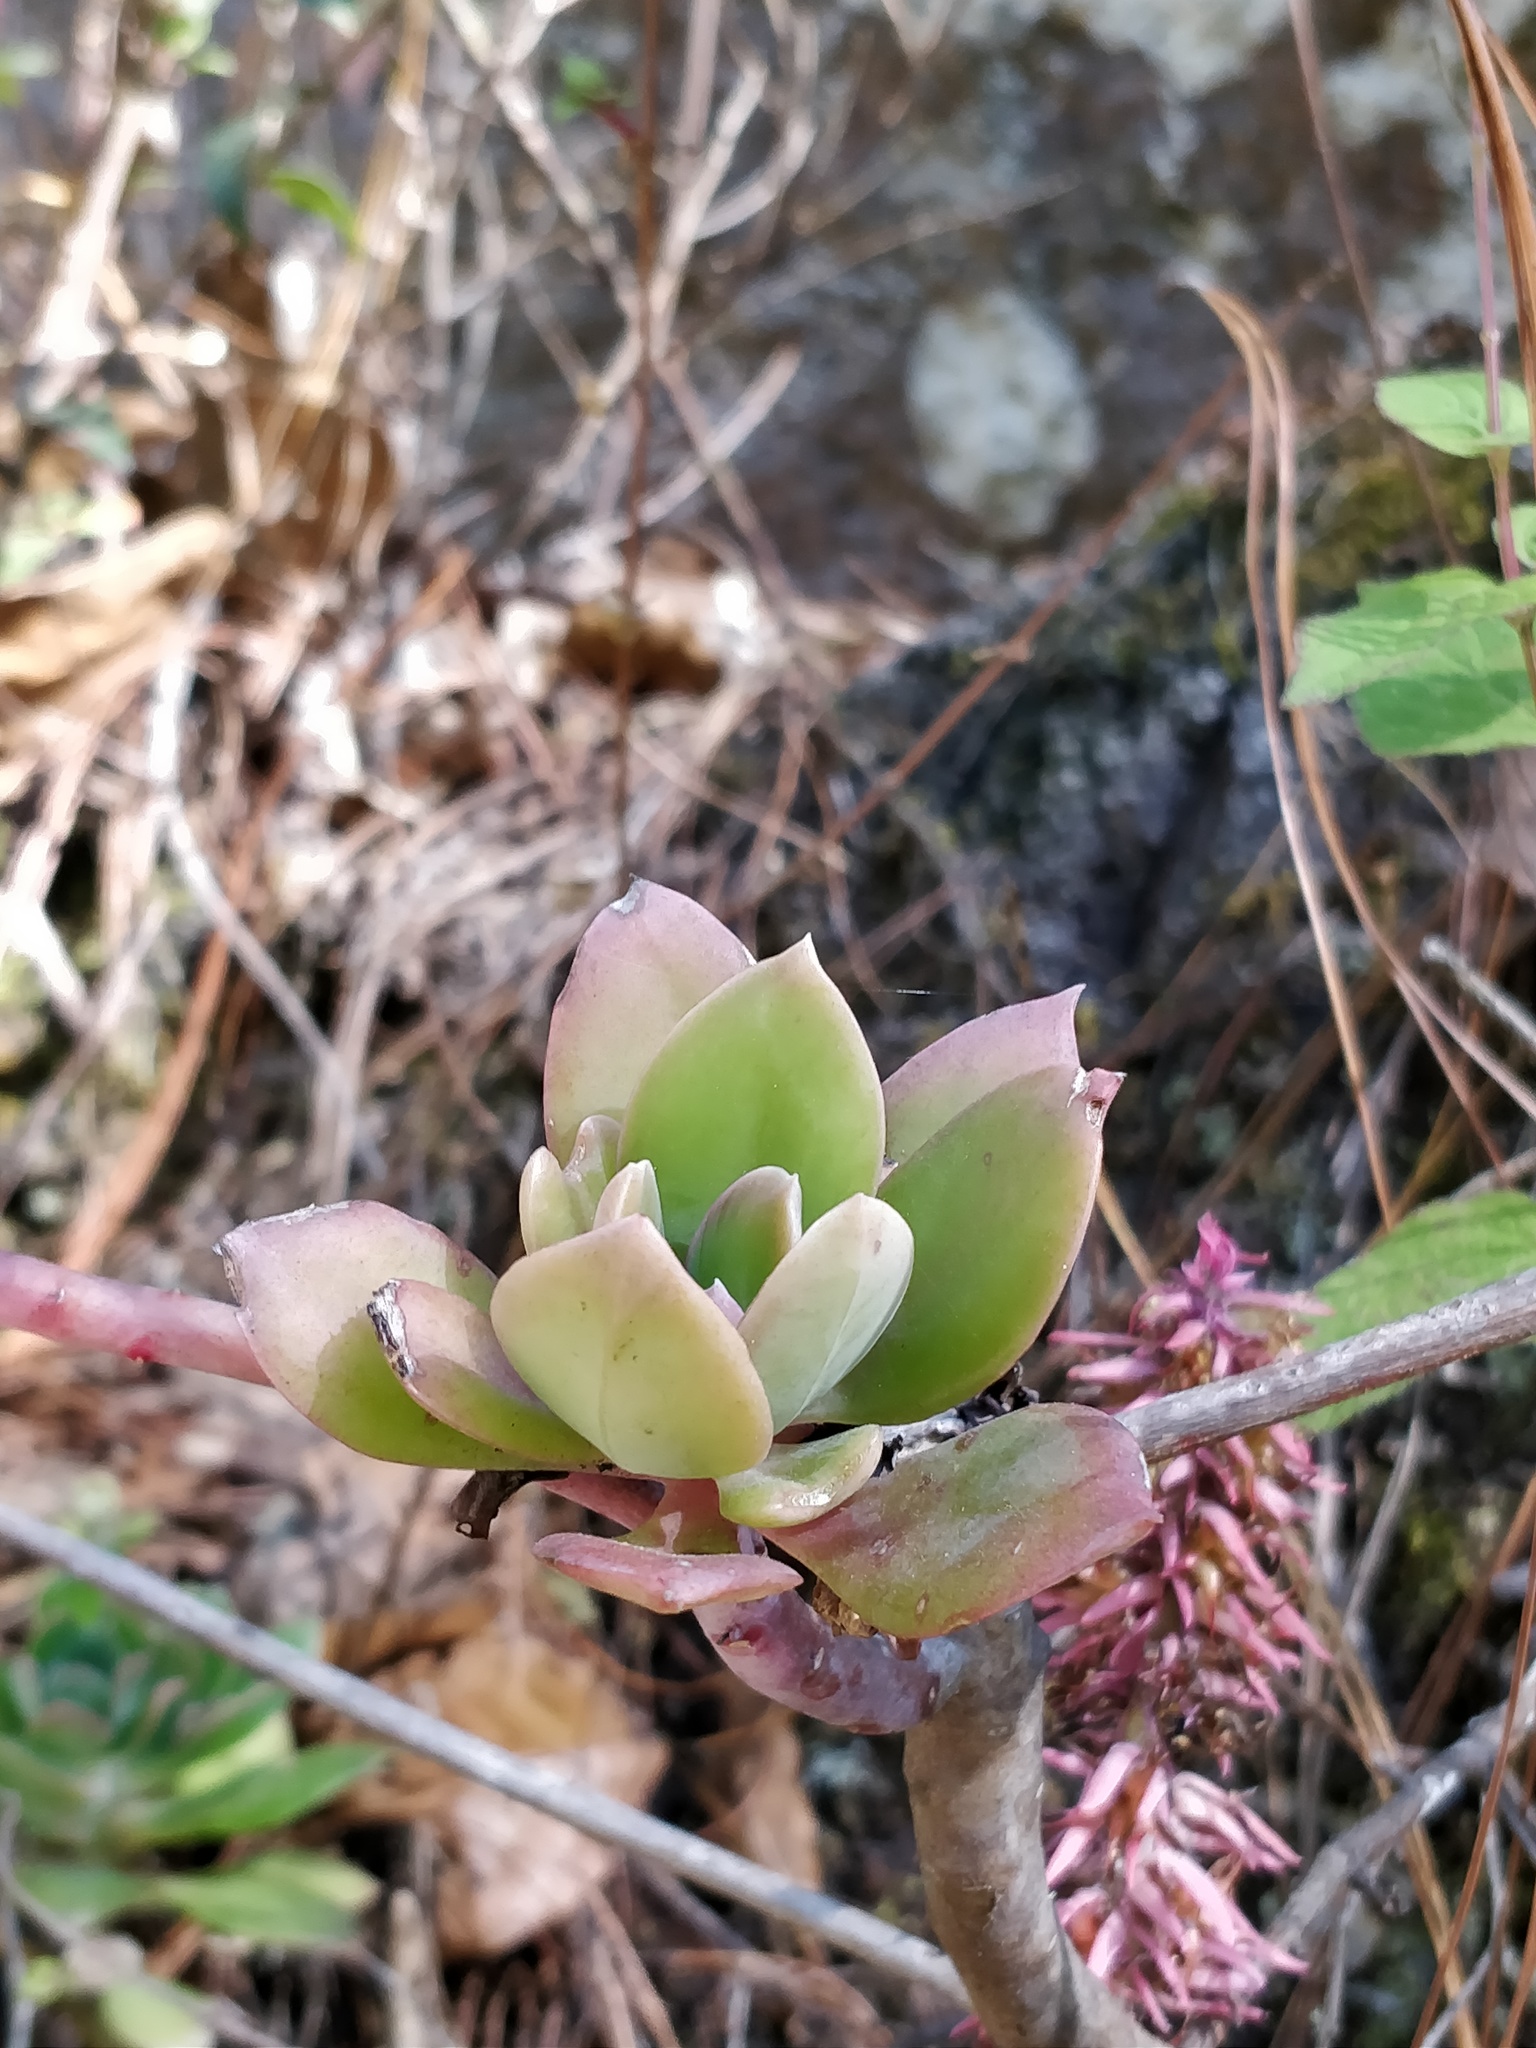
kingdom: Plantae
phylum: Tracheophyta
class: Magnoliopsida
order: Saxifragales
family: Crassulaceae
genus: Echeveria
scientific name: Echeveria rosea
